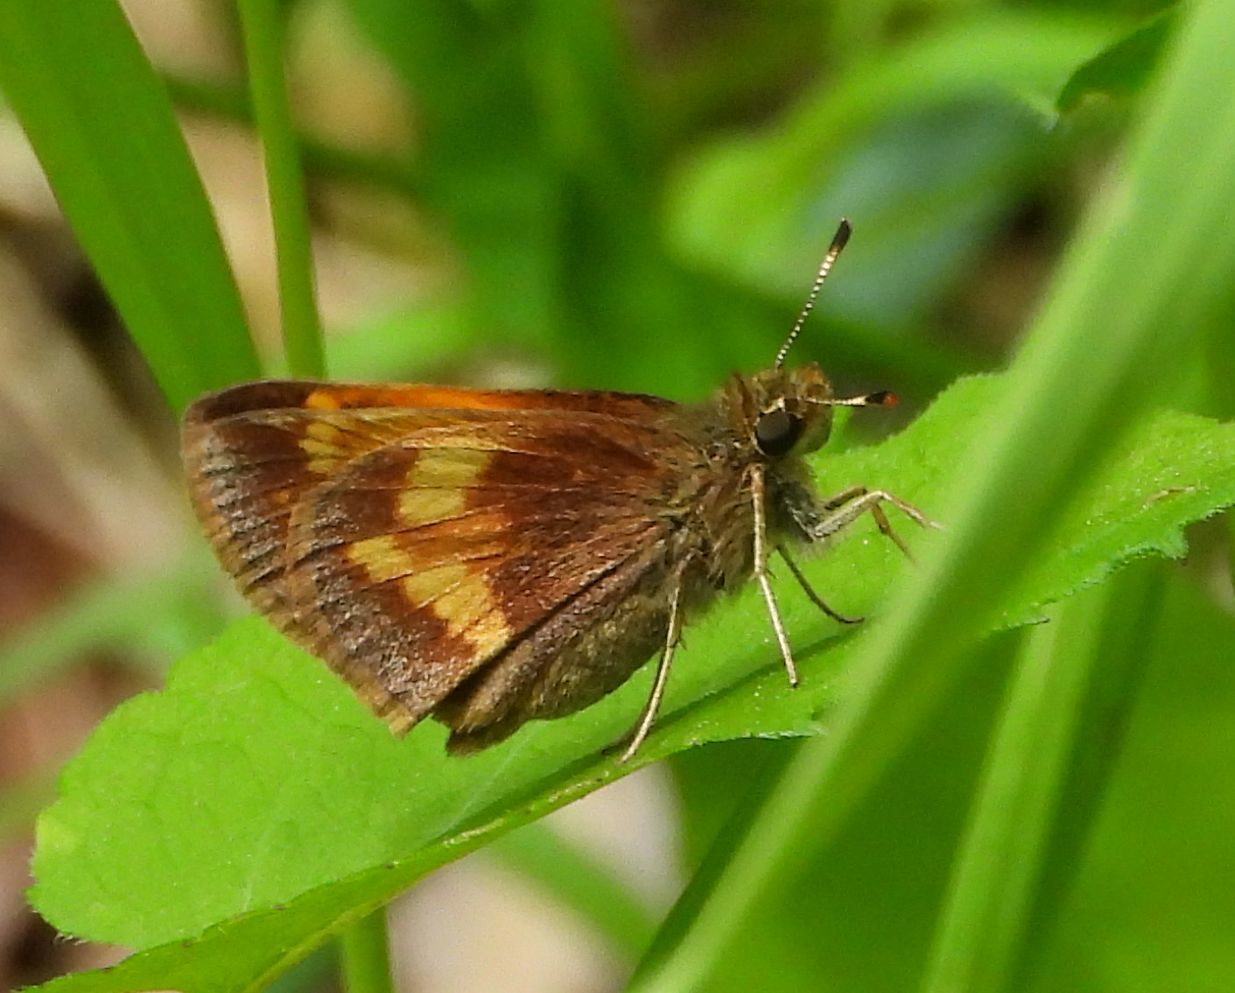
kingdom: Animalia
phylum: Arthropoda
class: Insecta
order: Lepidoptera
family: Hesperiidae
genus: Lon
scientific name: Lon hobomok
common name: Hobomok skipper
